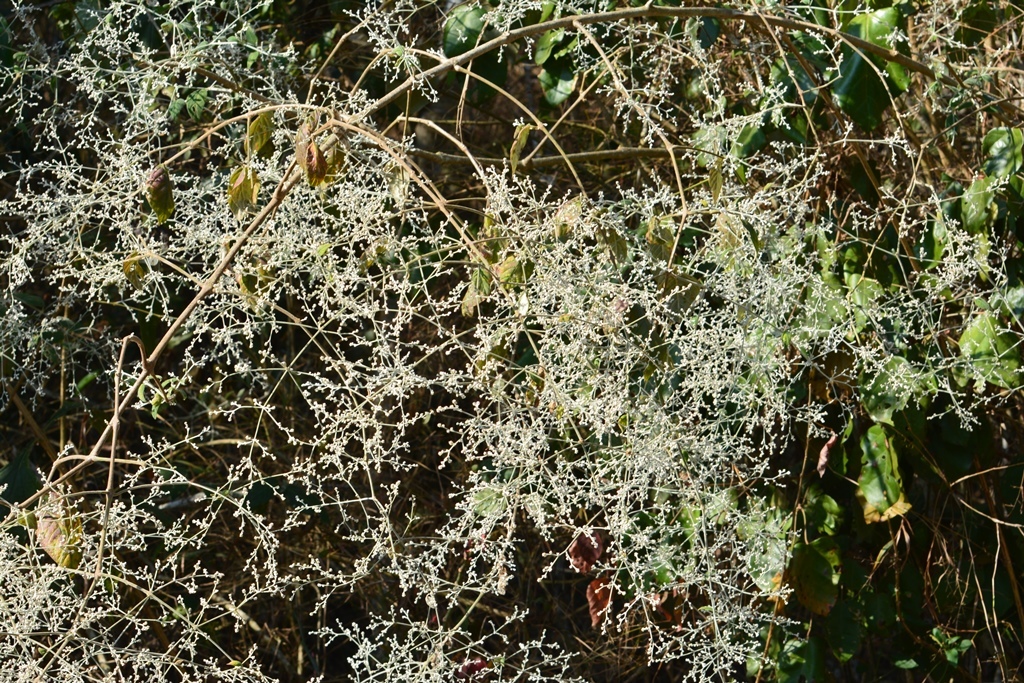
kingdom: Plantae
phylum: Tracheophyta
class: Magnoliopsida
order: Caryophyllales
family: Amaranthaceae
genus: Iresine
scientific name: Iresine latifolia
